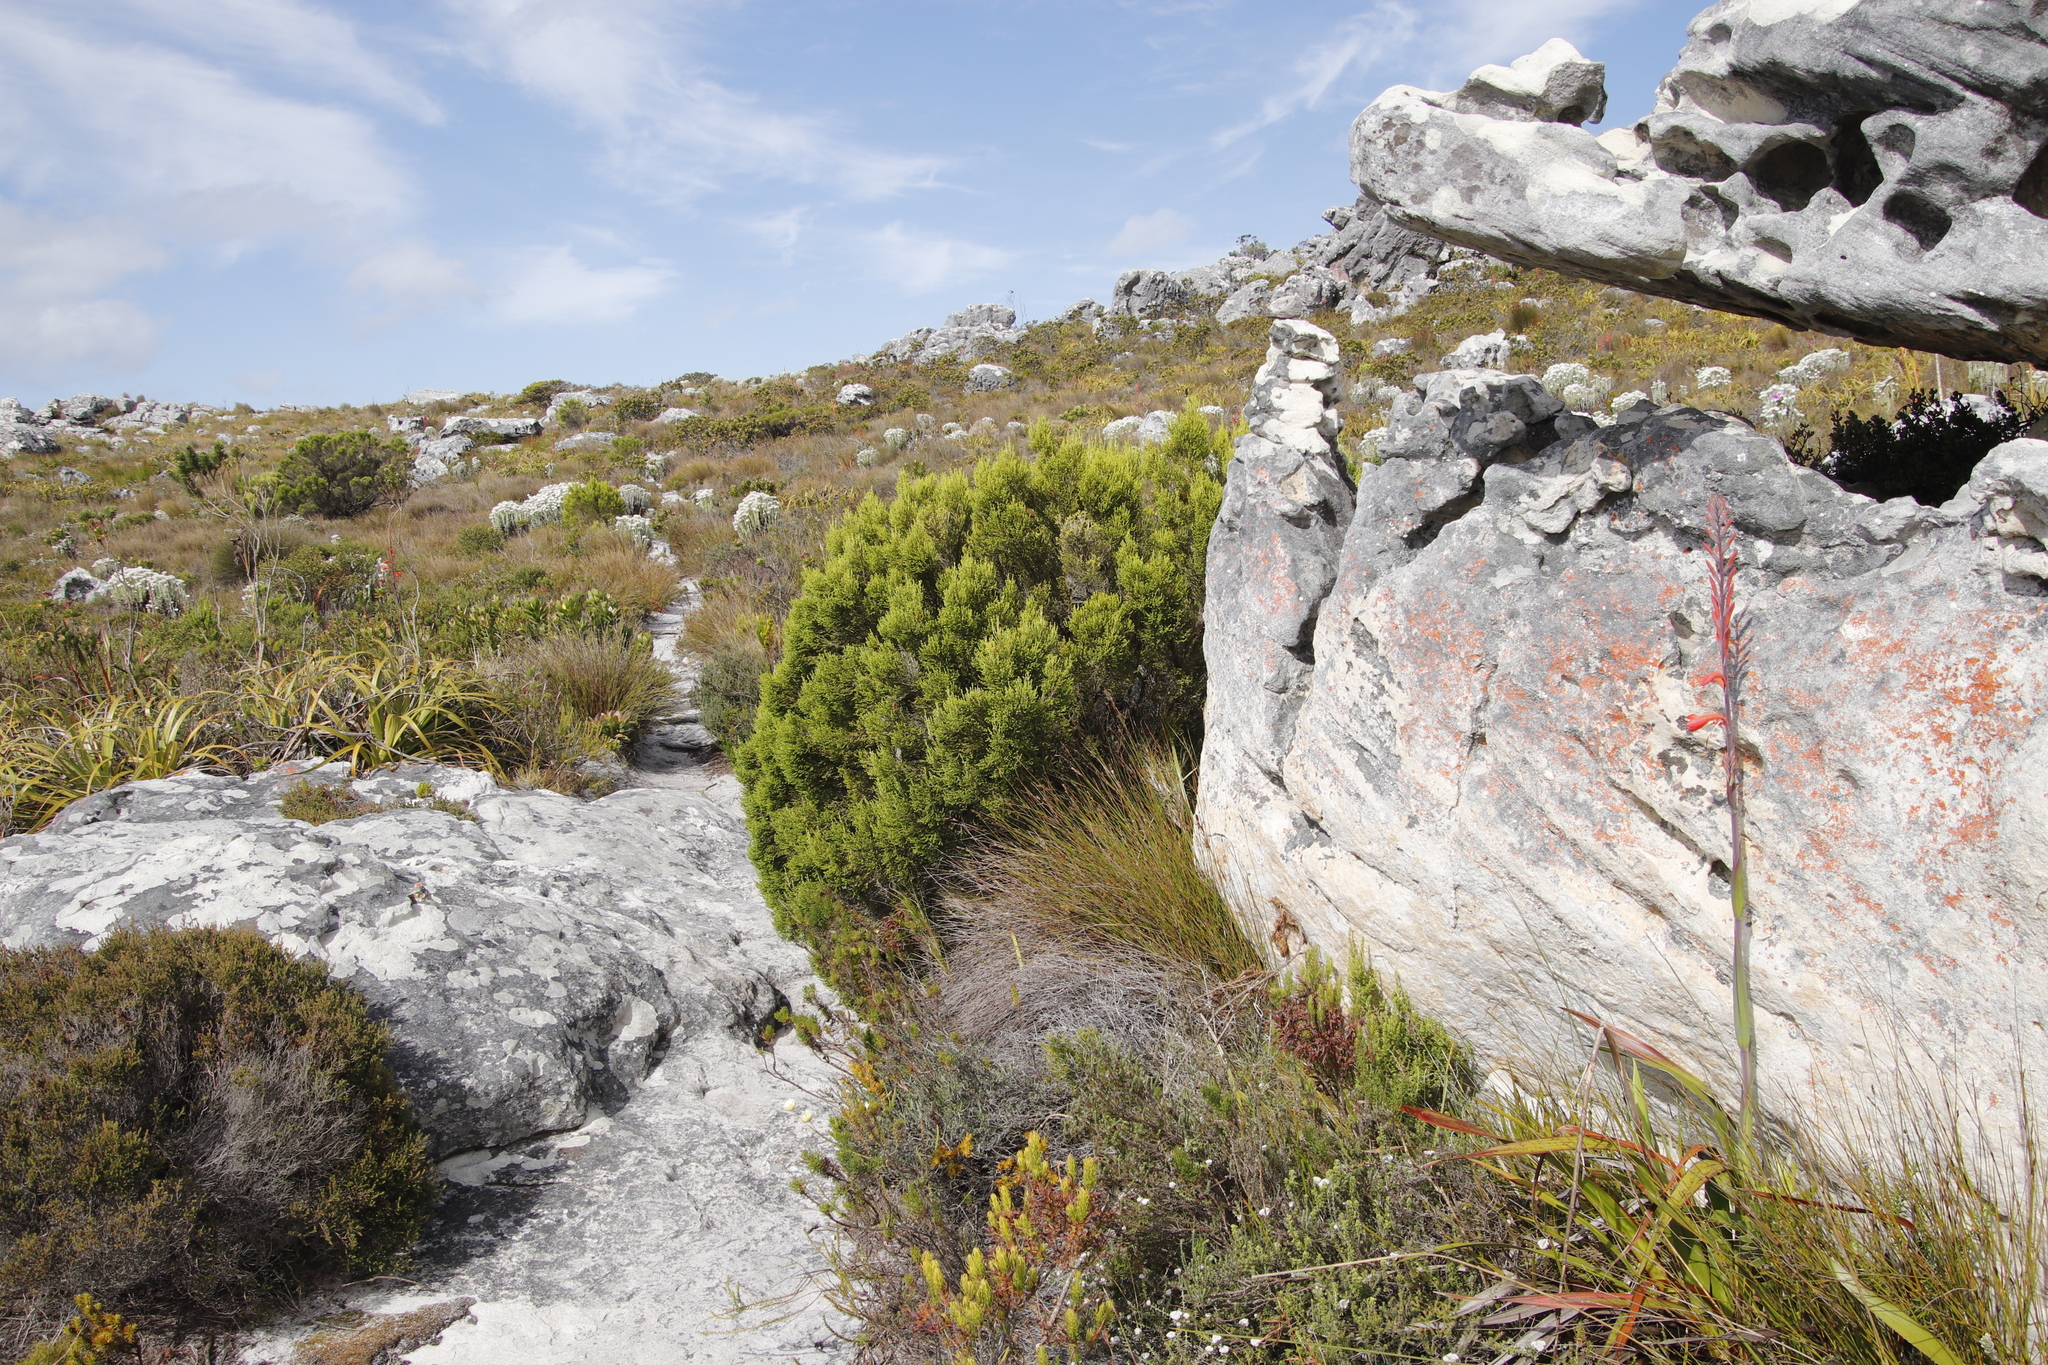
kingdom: Plantae
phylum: Tracheophyta
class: Magnoliopsida
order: Ericales
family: Ericaceae
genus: Erica
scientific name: Erica tristis
